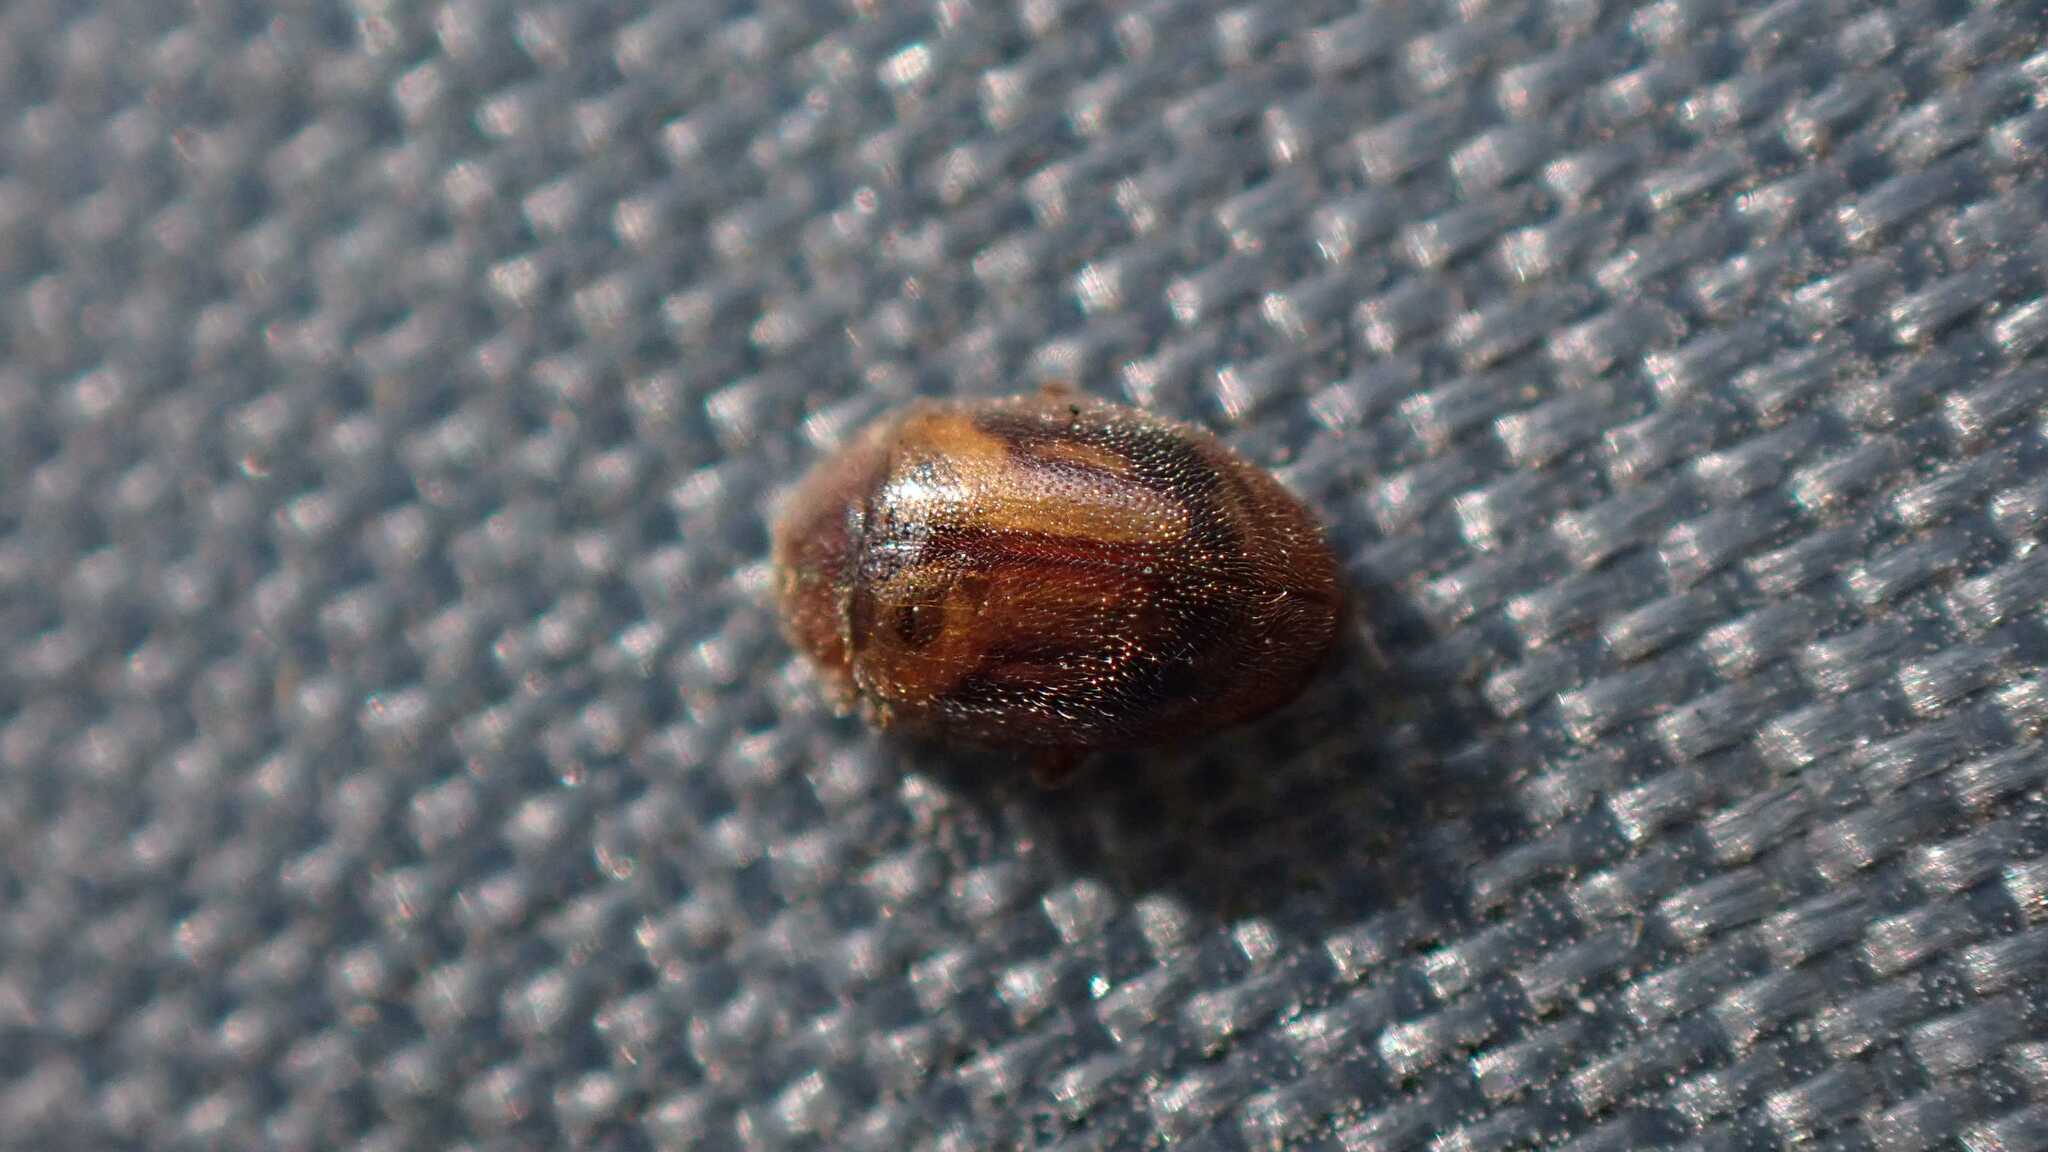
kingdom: Animalia
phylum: Arthropoda
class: Insecta
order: Coleoptera
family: Coccinellidae
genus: Rhyzobius
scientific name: Rhyzobius chrysomeloides
